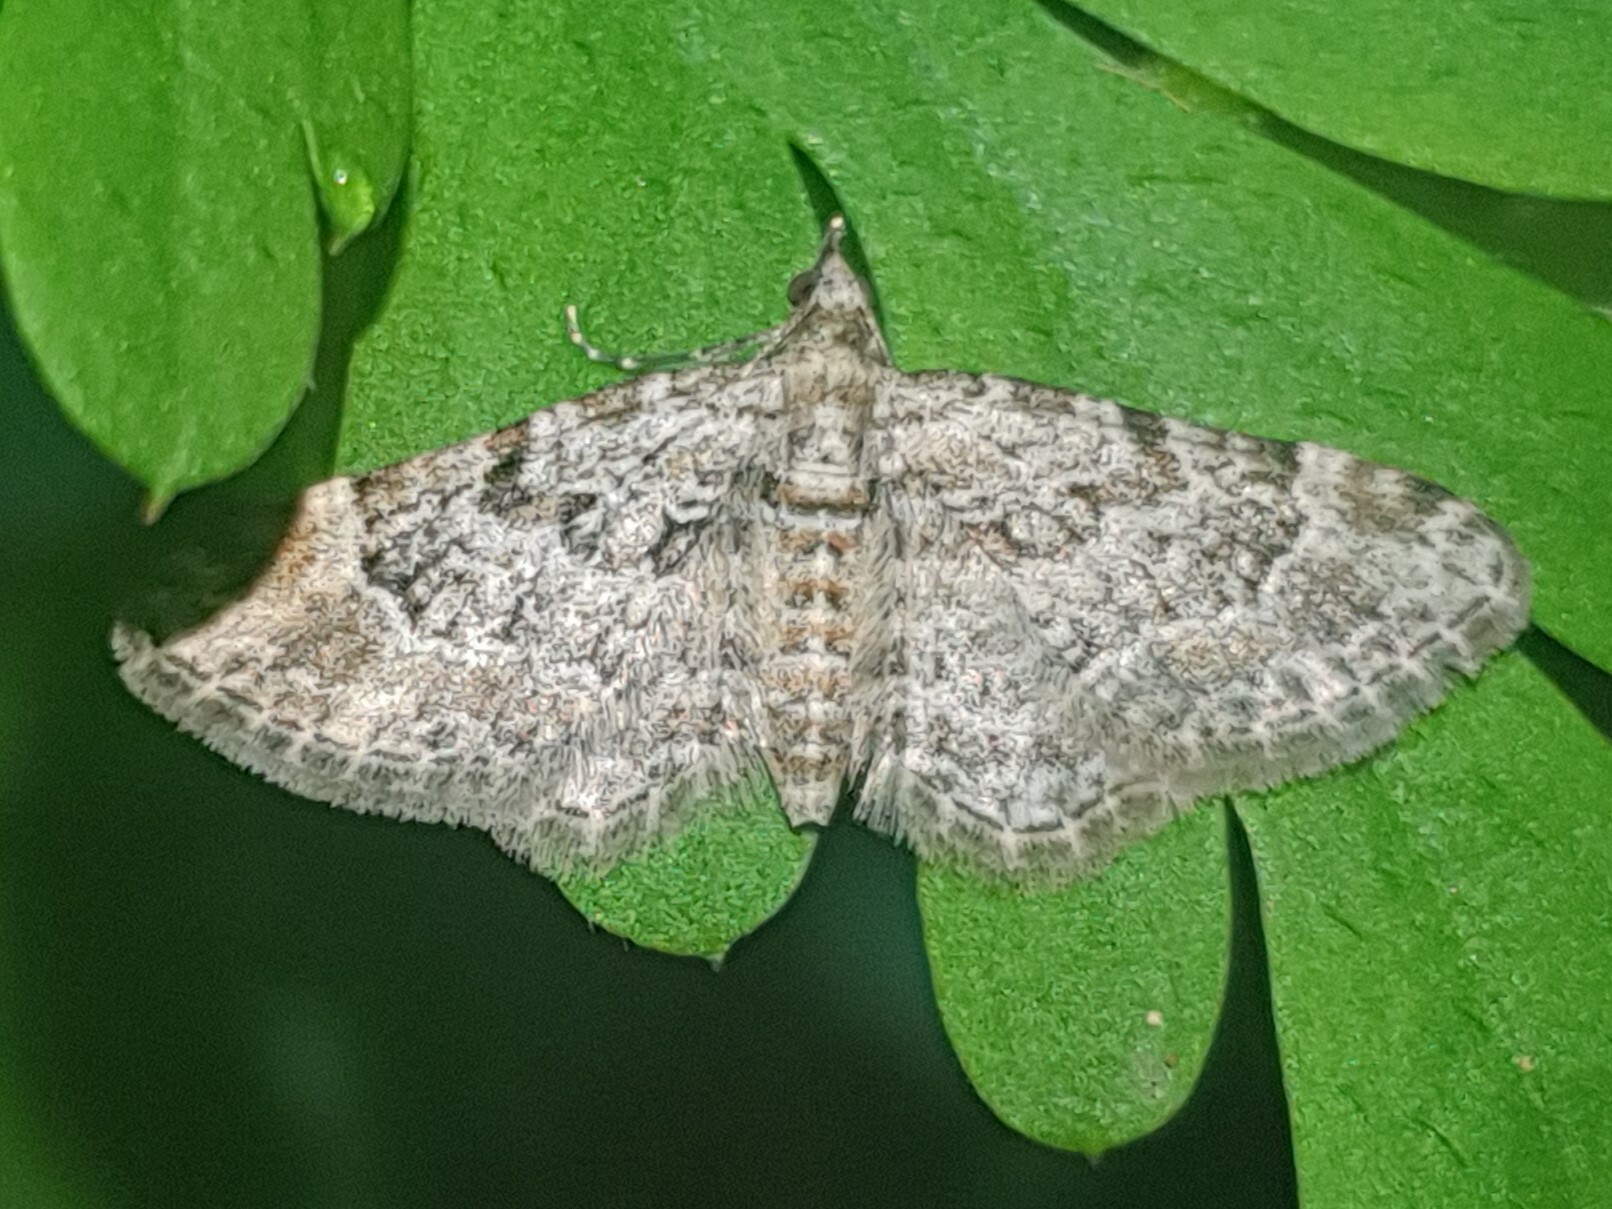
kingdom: Animalia
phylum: Arthropoda
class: Insecta
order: Lepidoptera
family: Geometridae
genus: Gymnoscelis
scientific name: Gymnoscelis rufifasciata
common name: Double-striped pug
